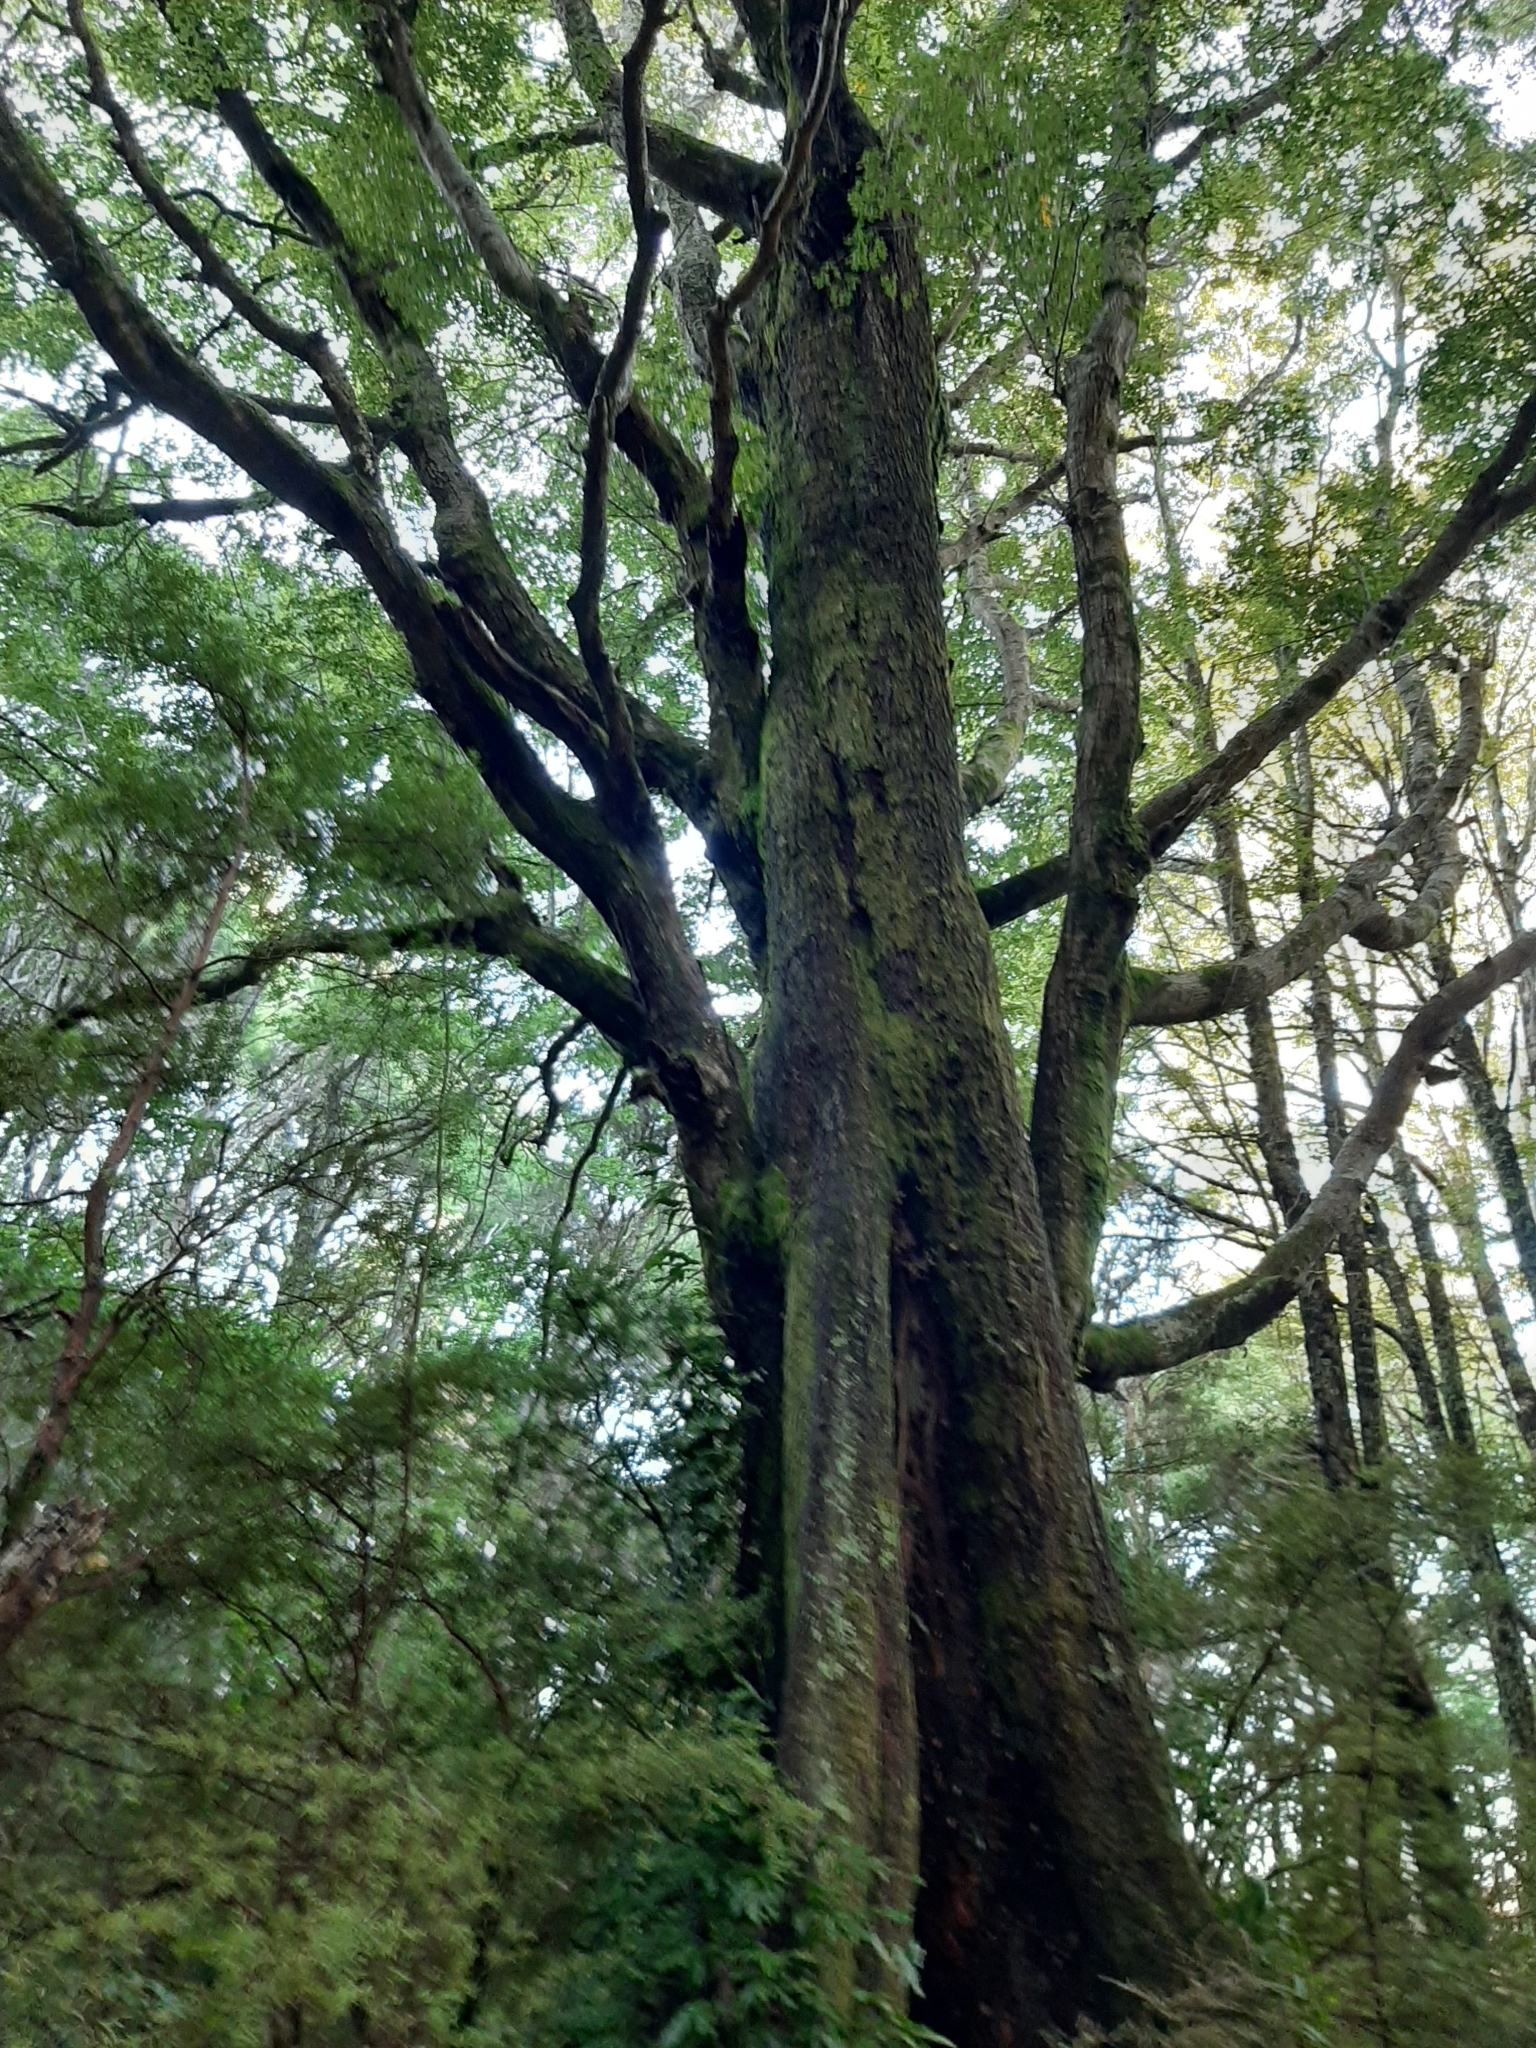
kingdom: Plantae
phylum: Tracheophyta
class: Magnoliopsida
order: Fagales
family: Nothofagaceae
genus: Nothofagus
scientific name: Nothofagus fusca
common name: Red beech
